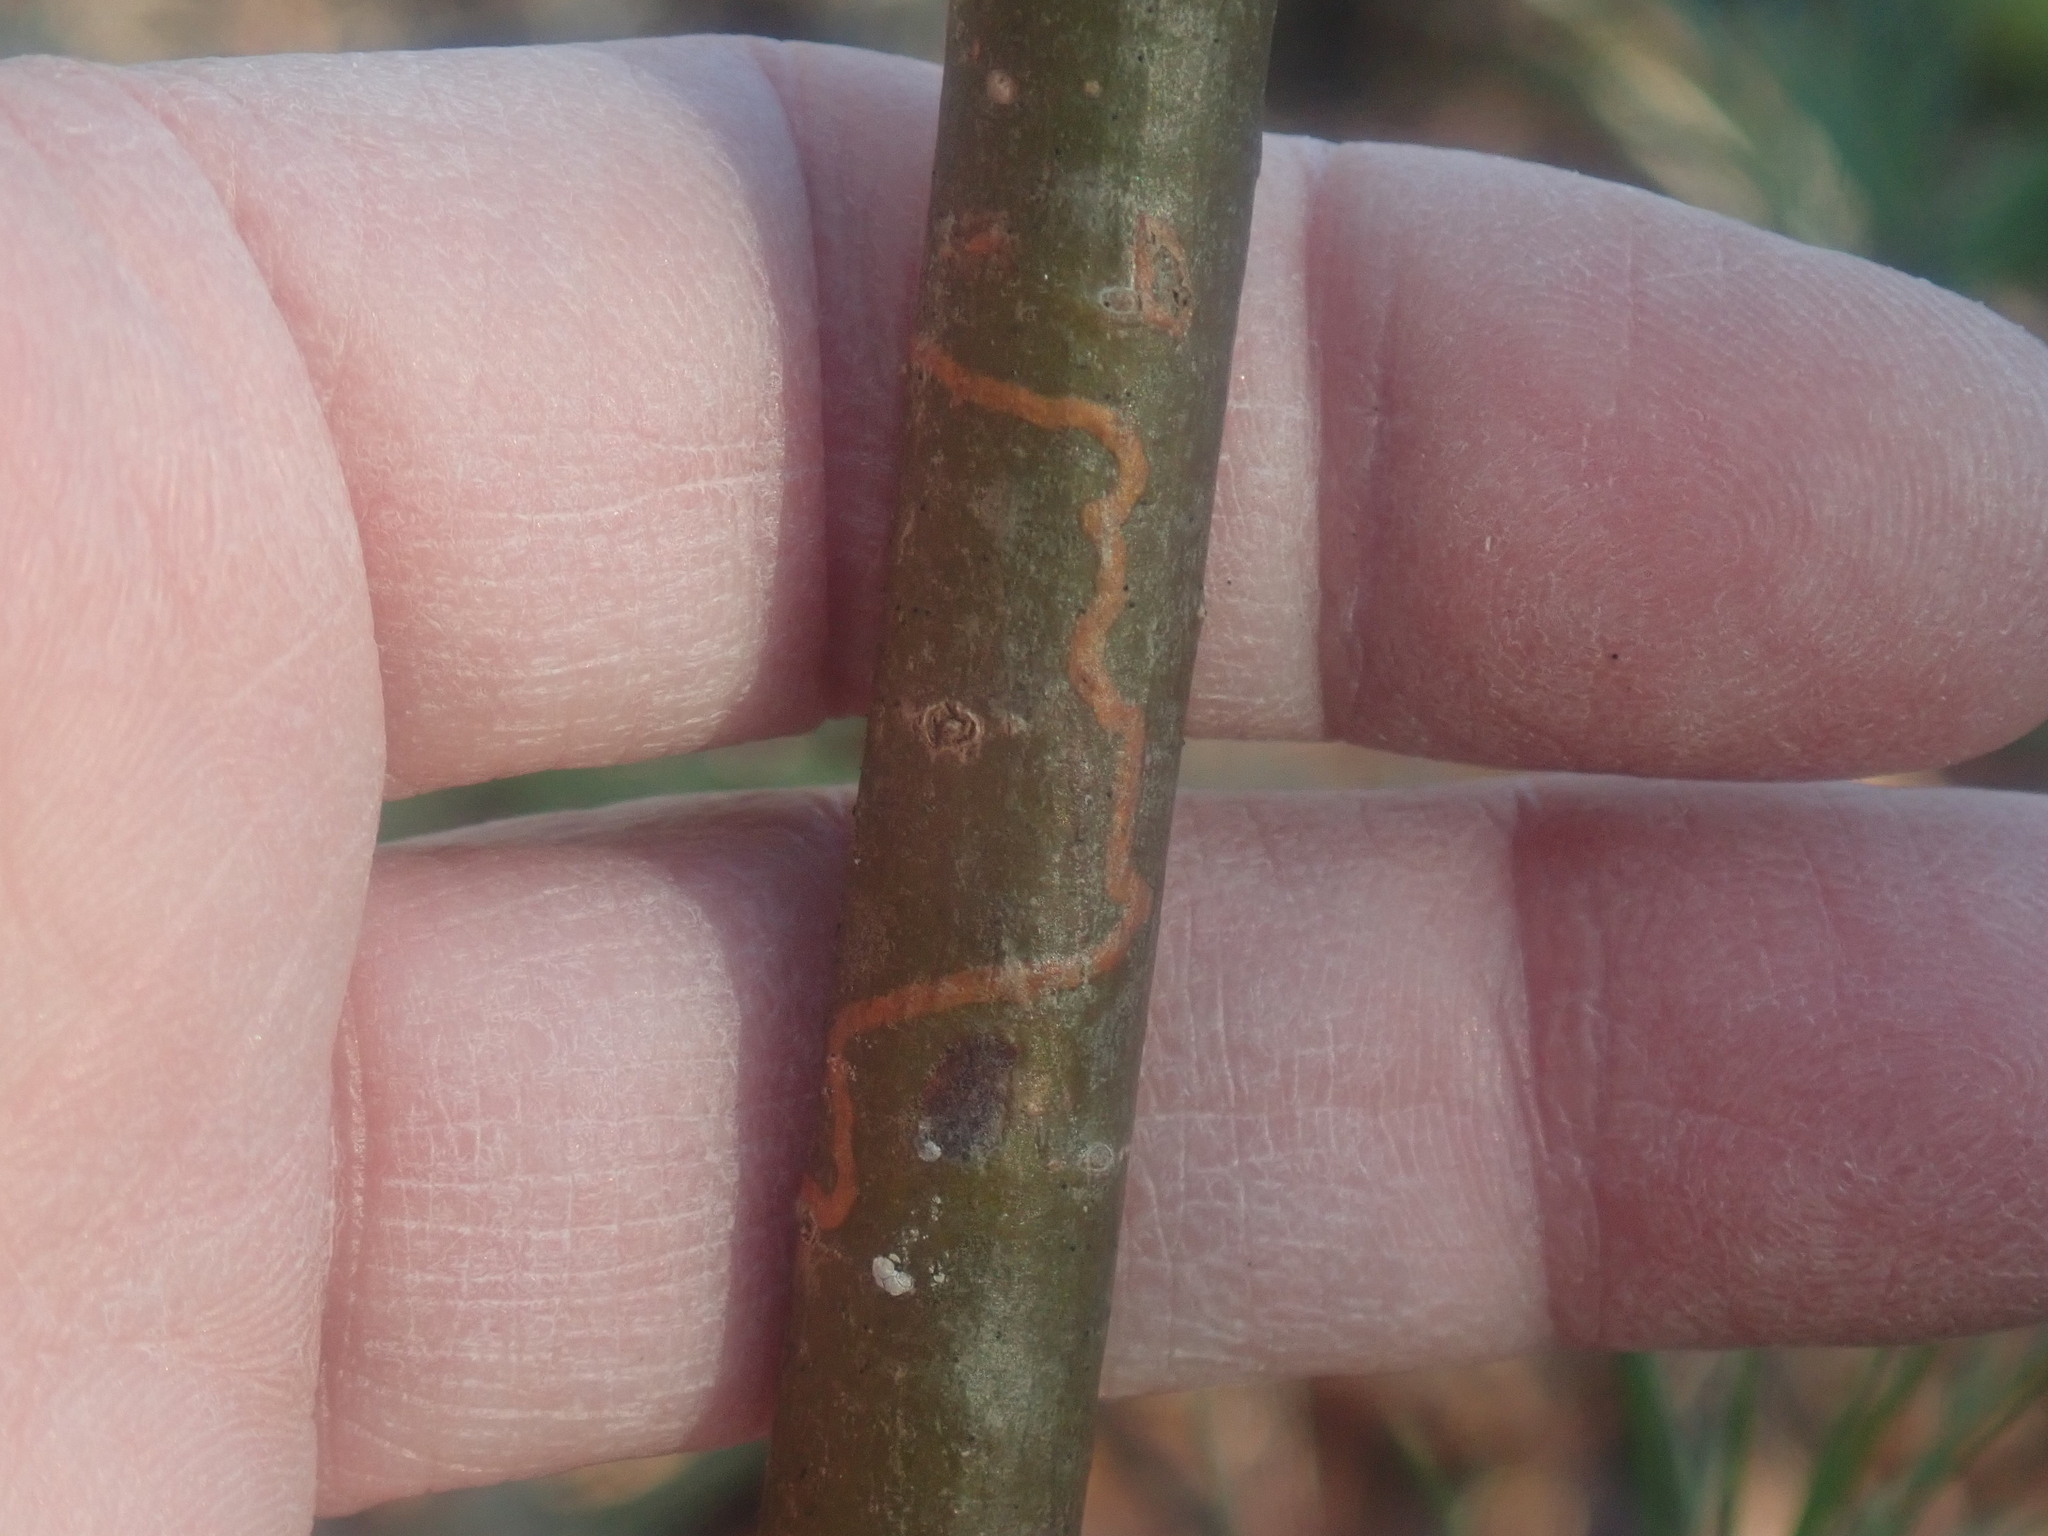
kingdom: Animalia
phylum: Arthropoda
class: Insecta
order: Lepidoptera
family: Gracillariidae
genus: Marmara
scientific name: Marmara fasciella
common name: White pine barkminer moth
